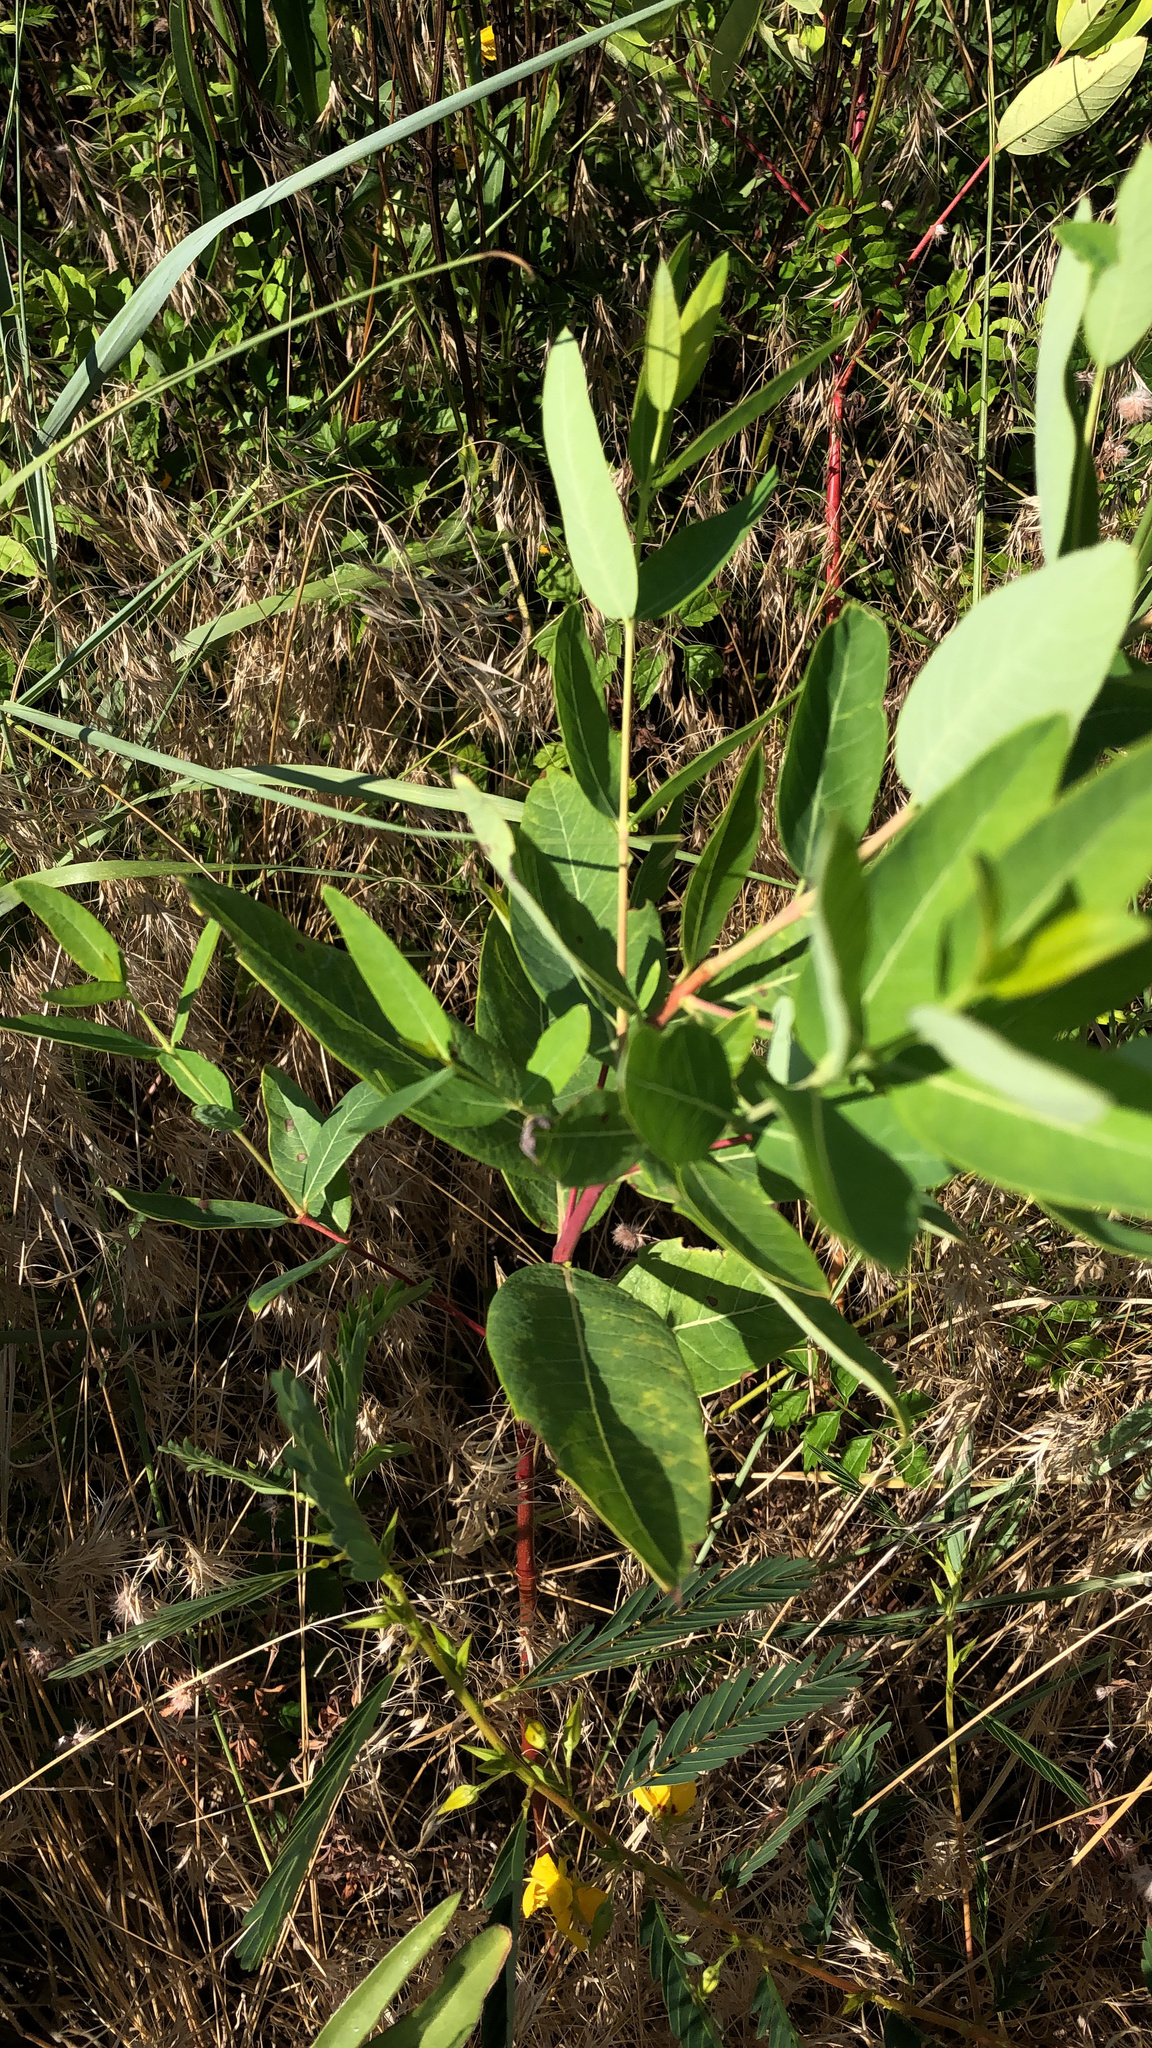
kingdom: Plantae
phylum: Tracheophyta
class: Magnoliopsida
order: Gentianales
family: Apocynaceae
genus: Apocynum
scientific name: Apocynum cannabinum
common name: Hemp dogbane
